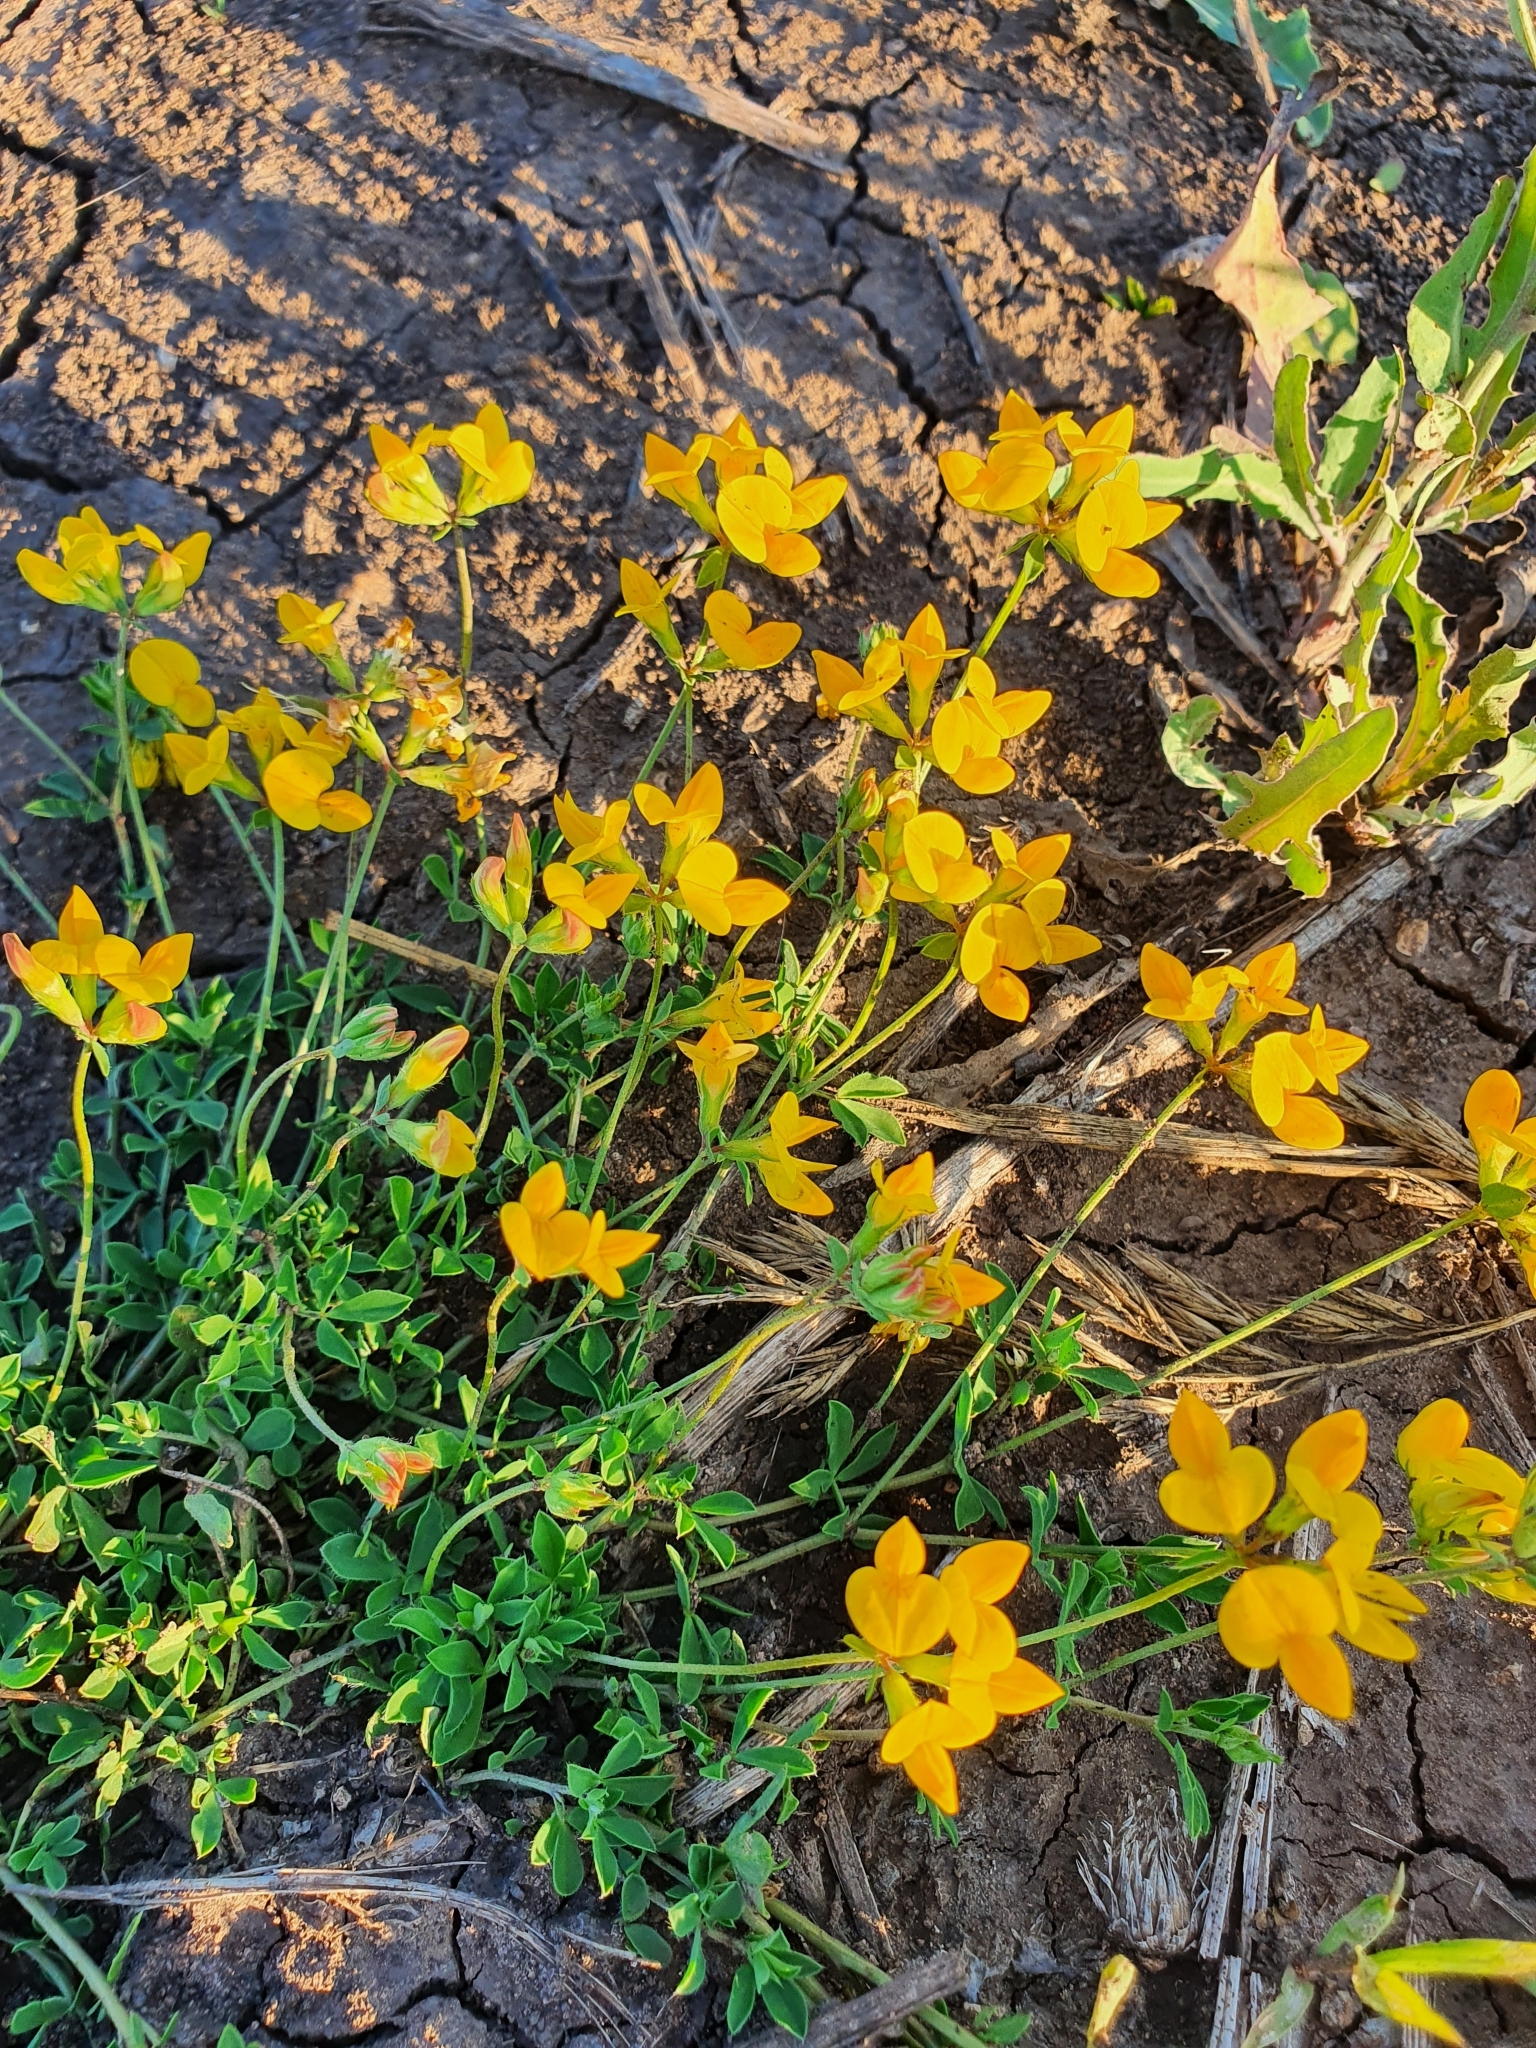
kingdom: Plantae
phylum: Tracheophyta
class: Magnoliopsida
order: Fabales
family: Fabaceae
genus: Lotus
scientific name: Lotus corniculatus
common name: Common bird's-foot-trefoil
